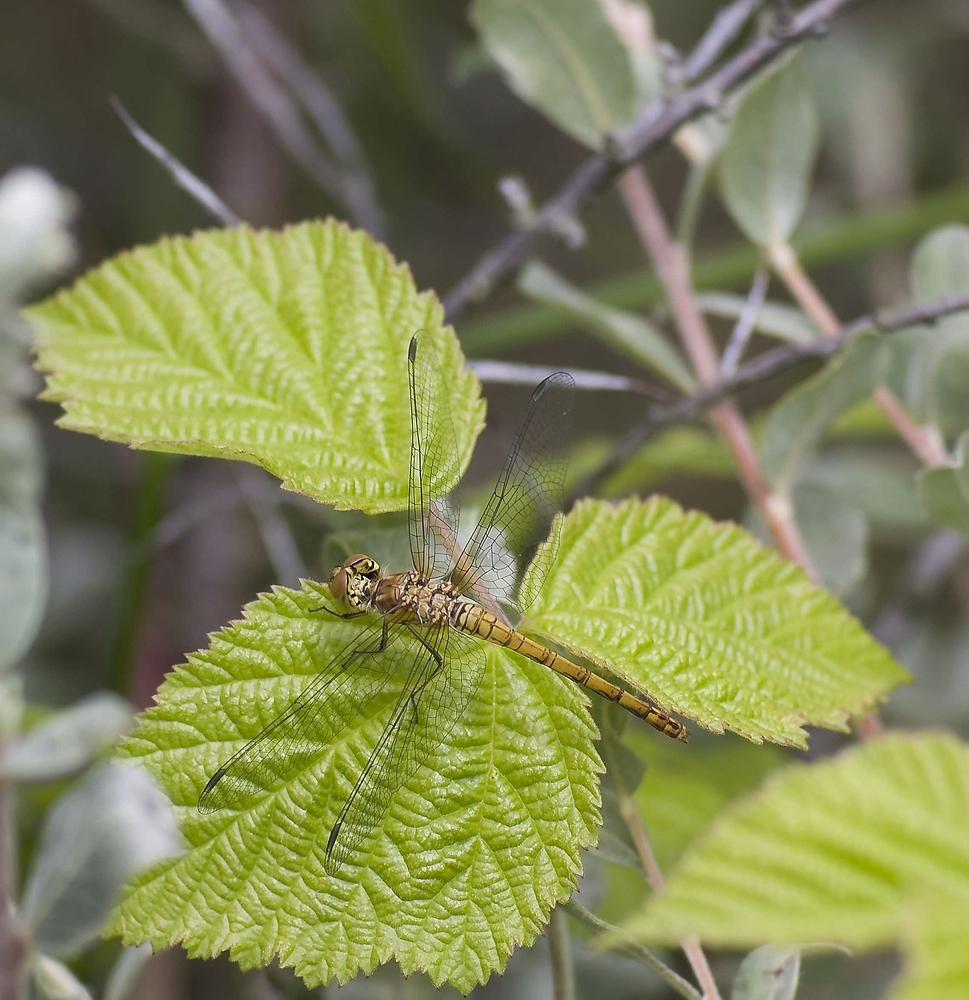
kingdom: Animalia
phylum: Arthropoda
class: Insecta
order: Odonata
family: Libellulidae
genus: Sympetrum
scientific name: Sympetrum striolatum
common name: Common darter
